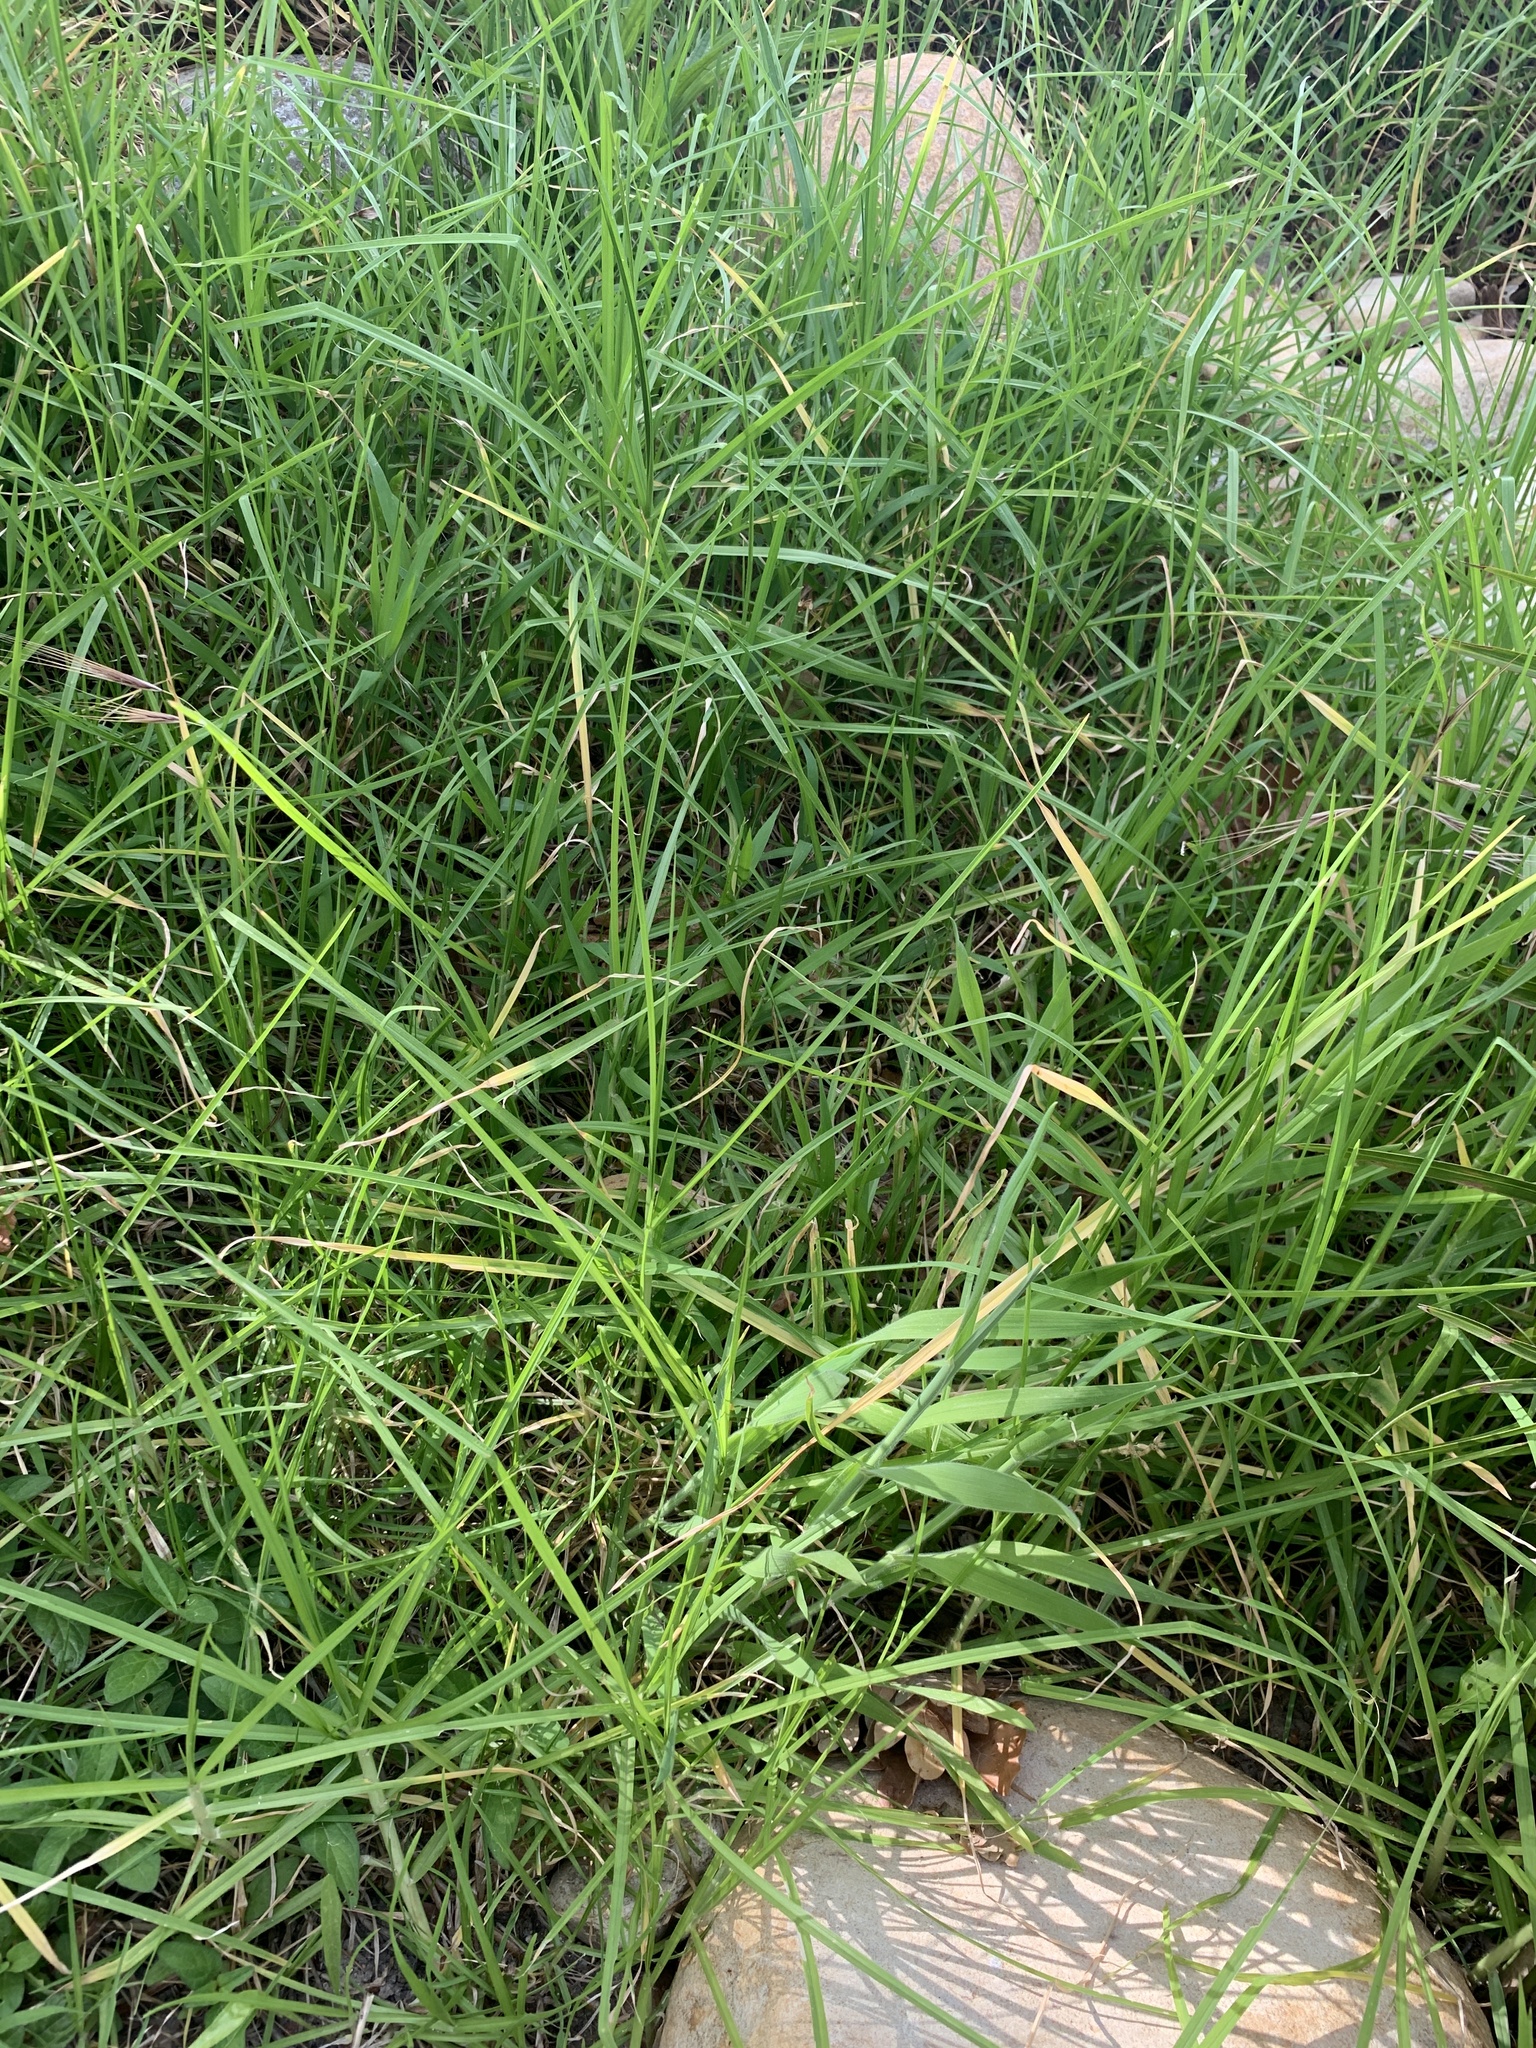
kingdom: Plantae
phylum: Tracheophyta
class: Liliopsida
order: Poales
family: Poaceae
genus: Cenchrus
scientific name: Cenchrus clandestinus
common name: Kikuyugrass
